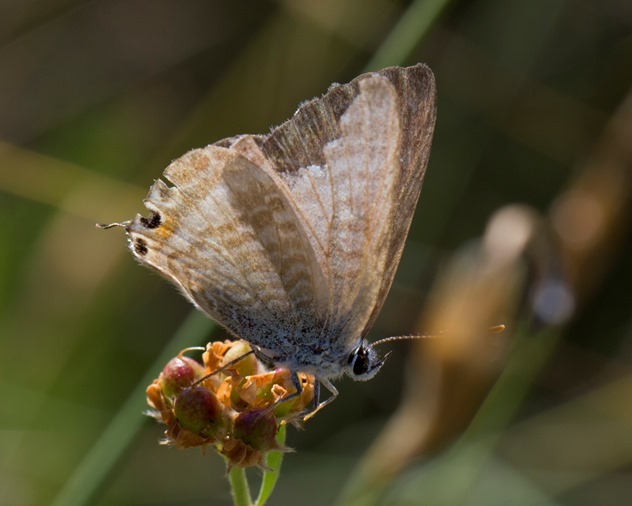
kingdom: Animalia
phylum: Arthropoda
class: Insecta
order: Lepidoptera
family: Lycaenidae
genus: Lampides
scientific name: Lampides boeticus
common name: Long-tailed blue
